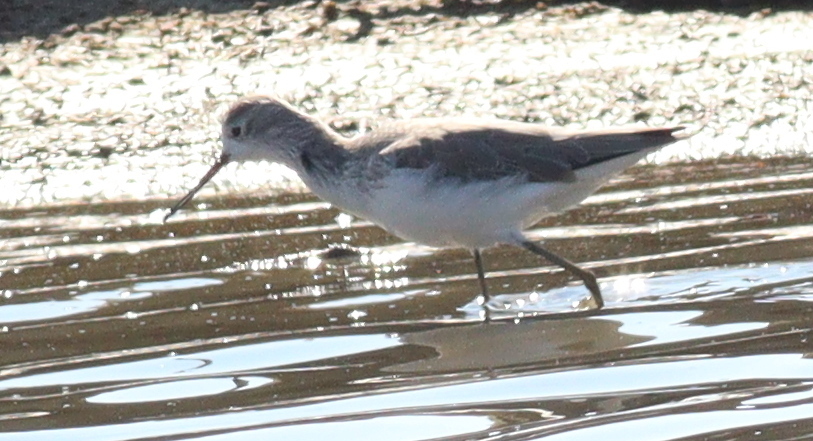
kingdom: Animalia
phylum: Chordata
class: Aves
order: Charadriiformes
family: Scolopacidae
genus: Tringa
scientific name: Tringa stagnatilis
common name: Marsh sandpiper
